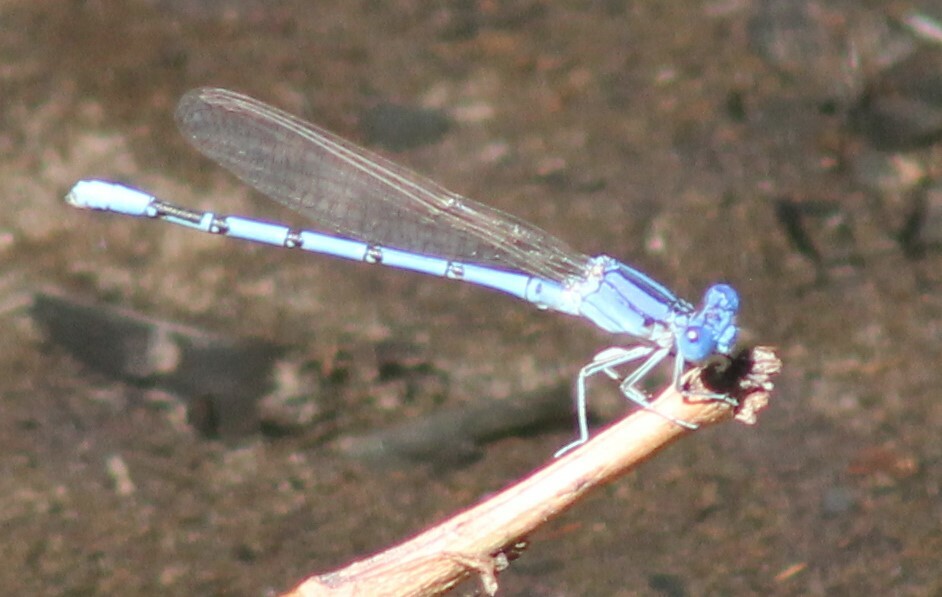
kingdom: Animalia
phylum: Arthropoda
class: Insecta
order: Odonata
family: Coenagrionidae
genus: Argia
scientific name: Argia nahuana
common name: Aztec dancer
